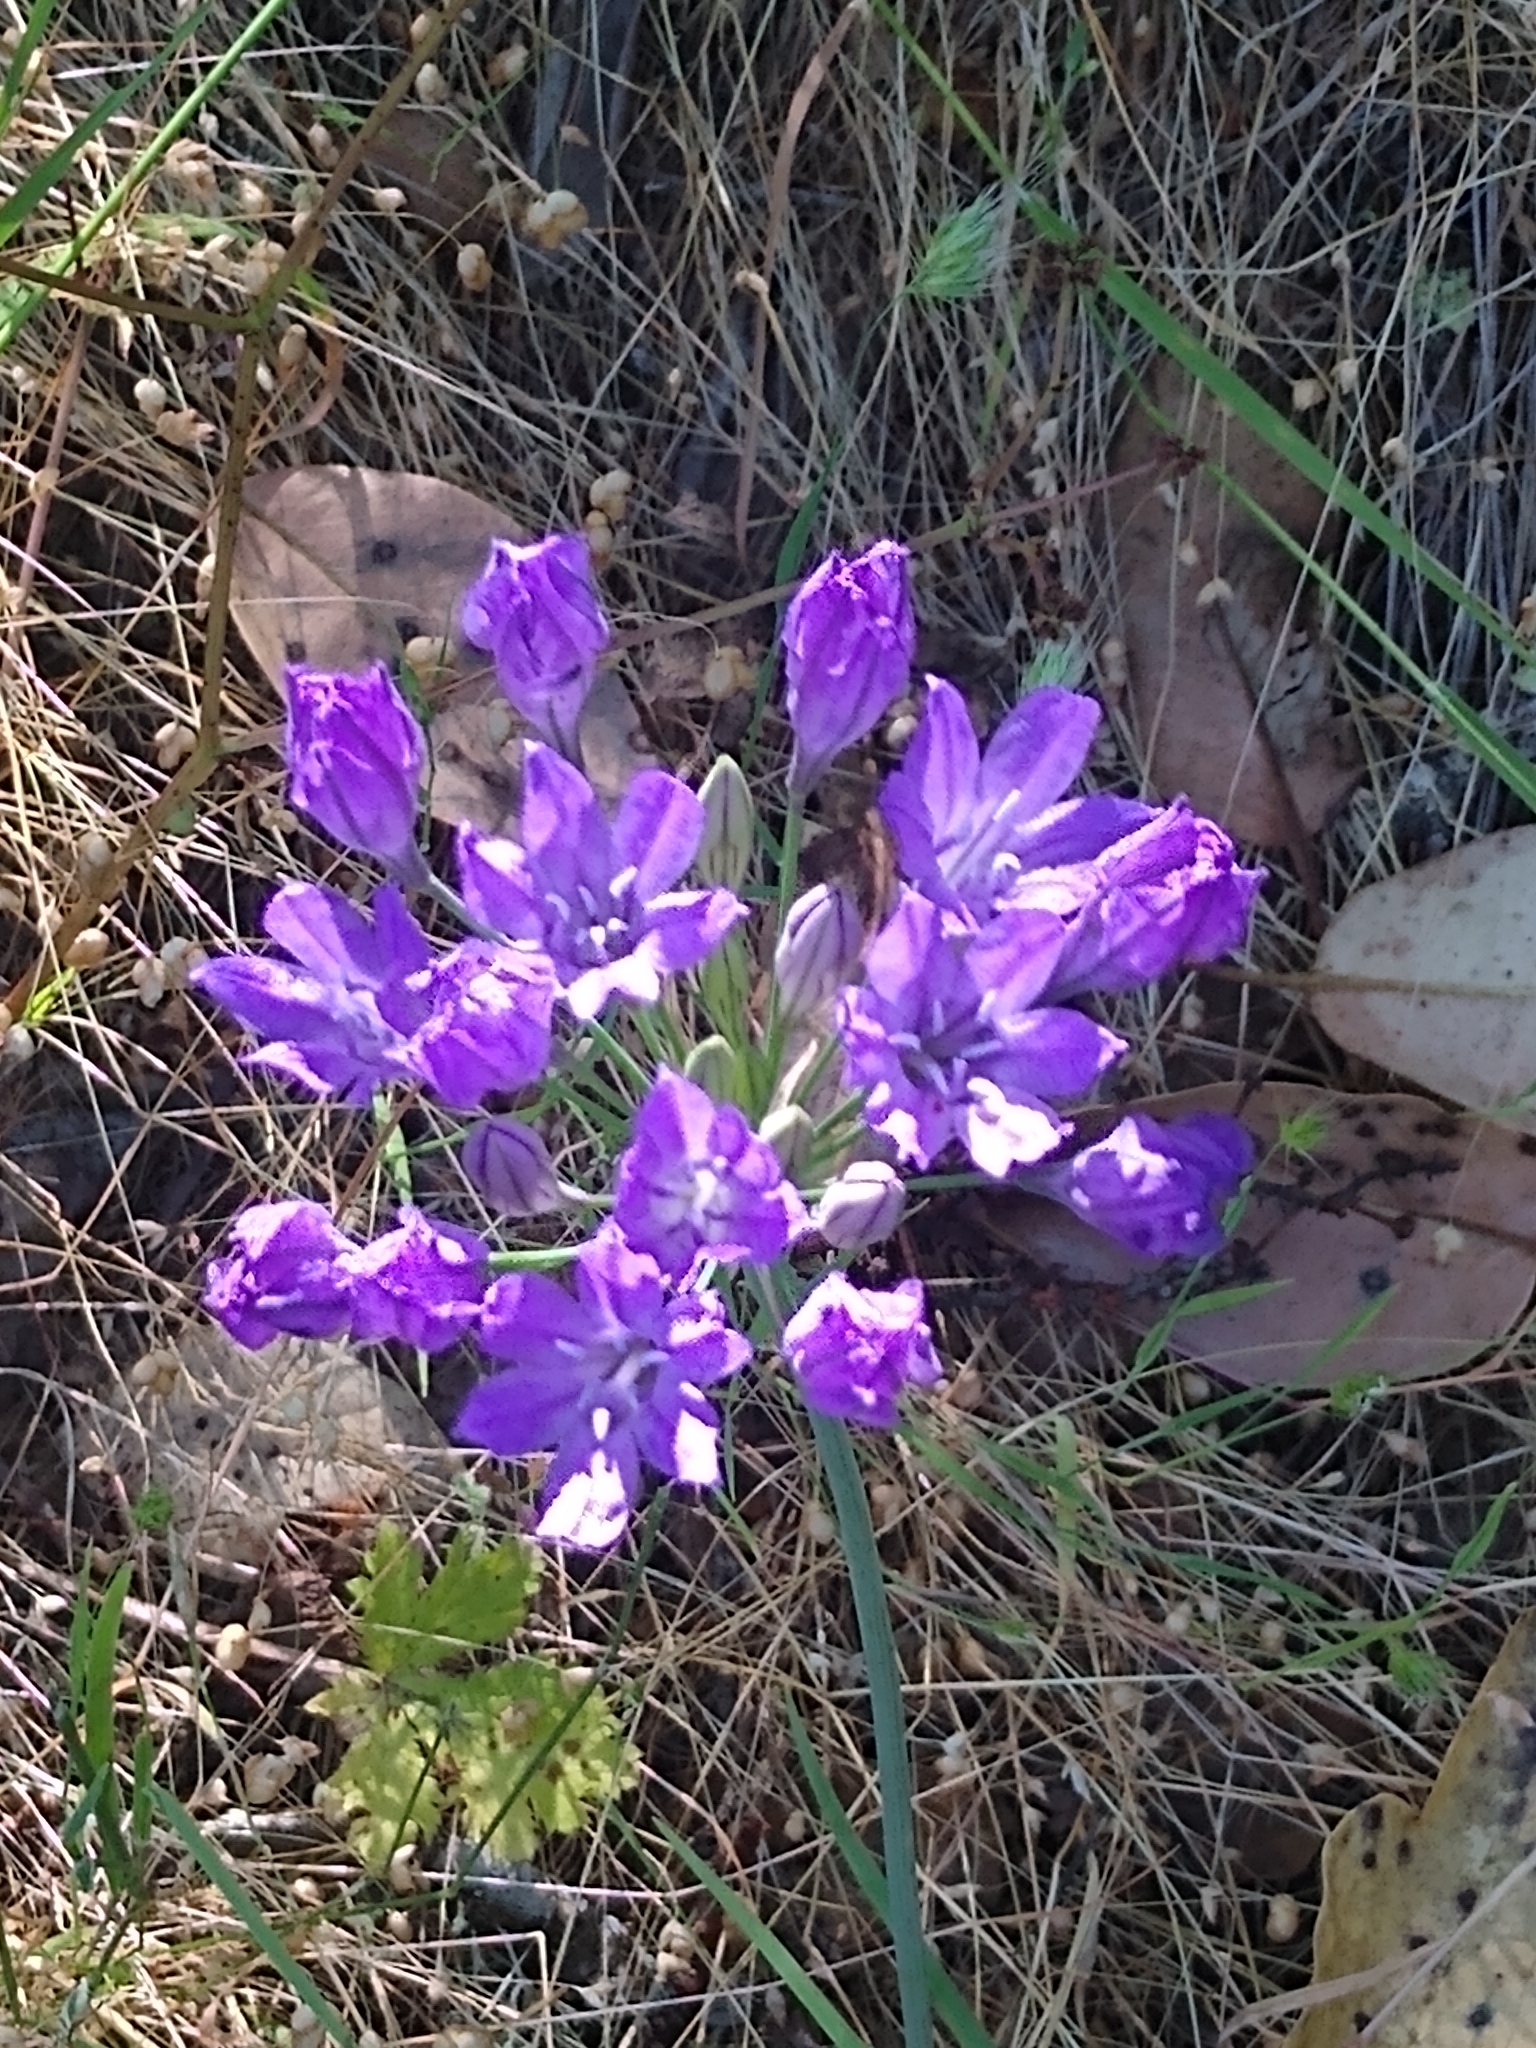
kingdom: Plantae
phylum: Tracheophyta
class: Liliopsida
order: Asparagales
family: Asparagaceae
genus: Triteleia
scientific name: Triteleia laxa
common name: Triplet-lily
